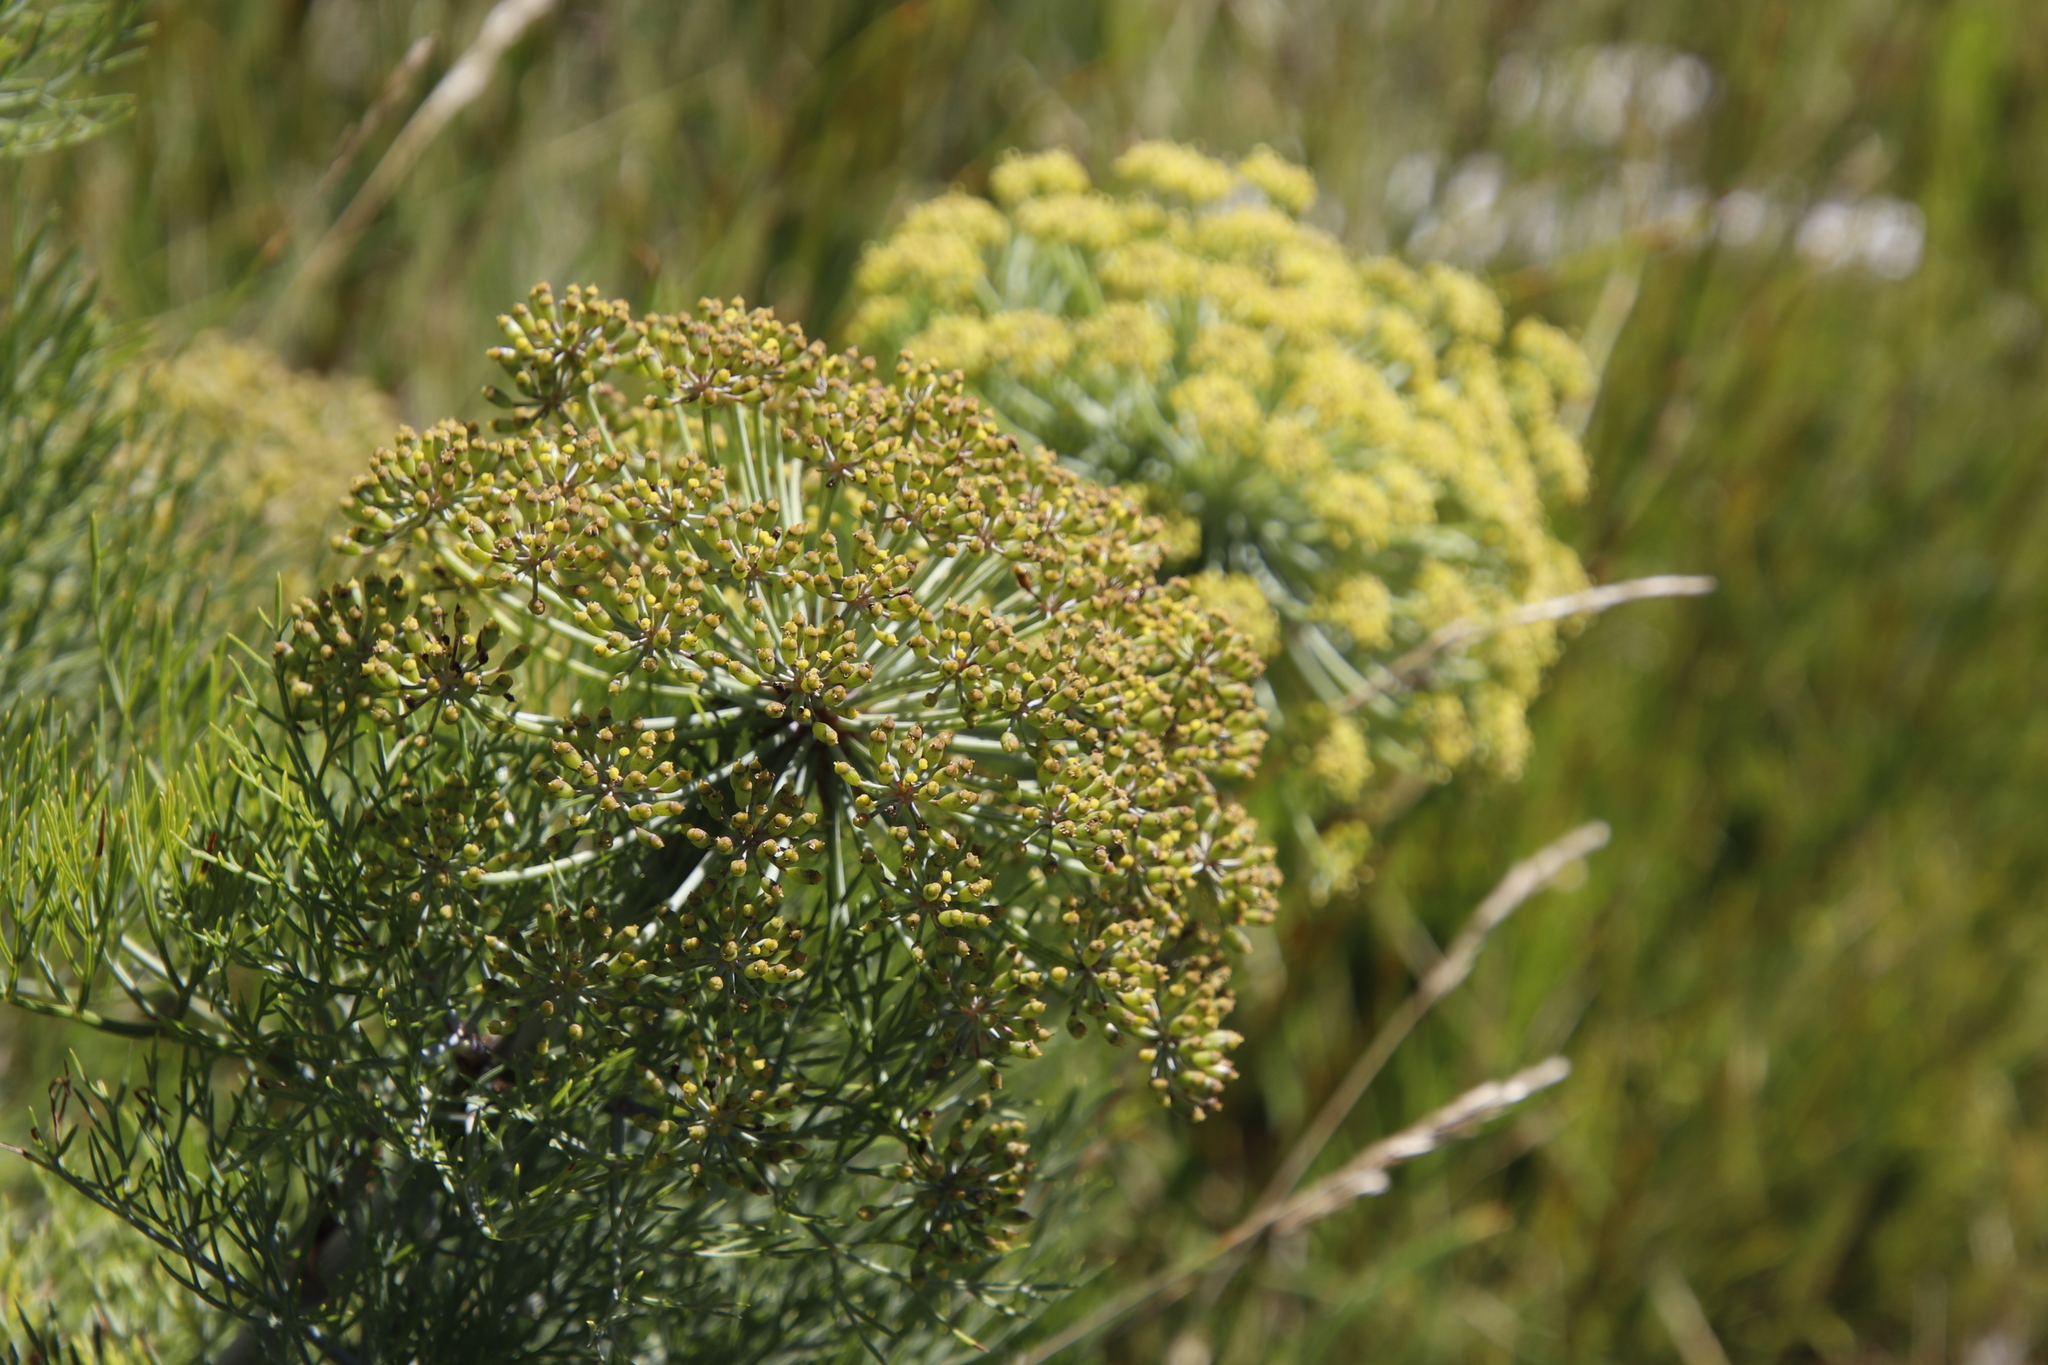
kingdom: Plantae
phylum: Tracheophyta
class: Magnoliopsida
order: Apiales
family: Apiaceae
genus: Notobubon
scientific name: Notobubon capense
